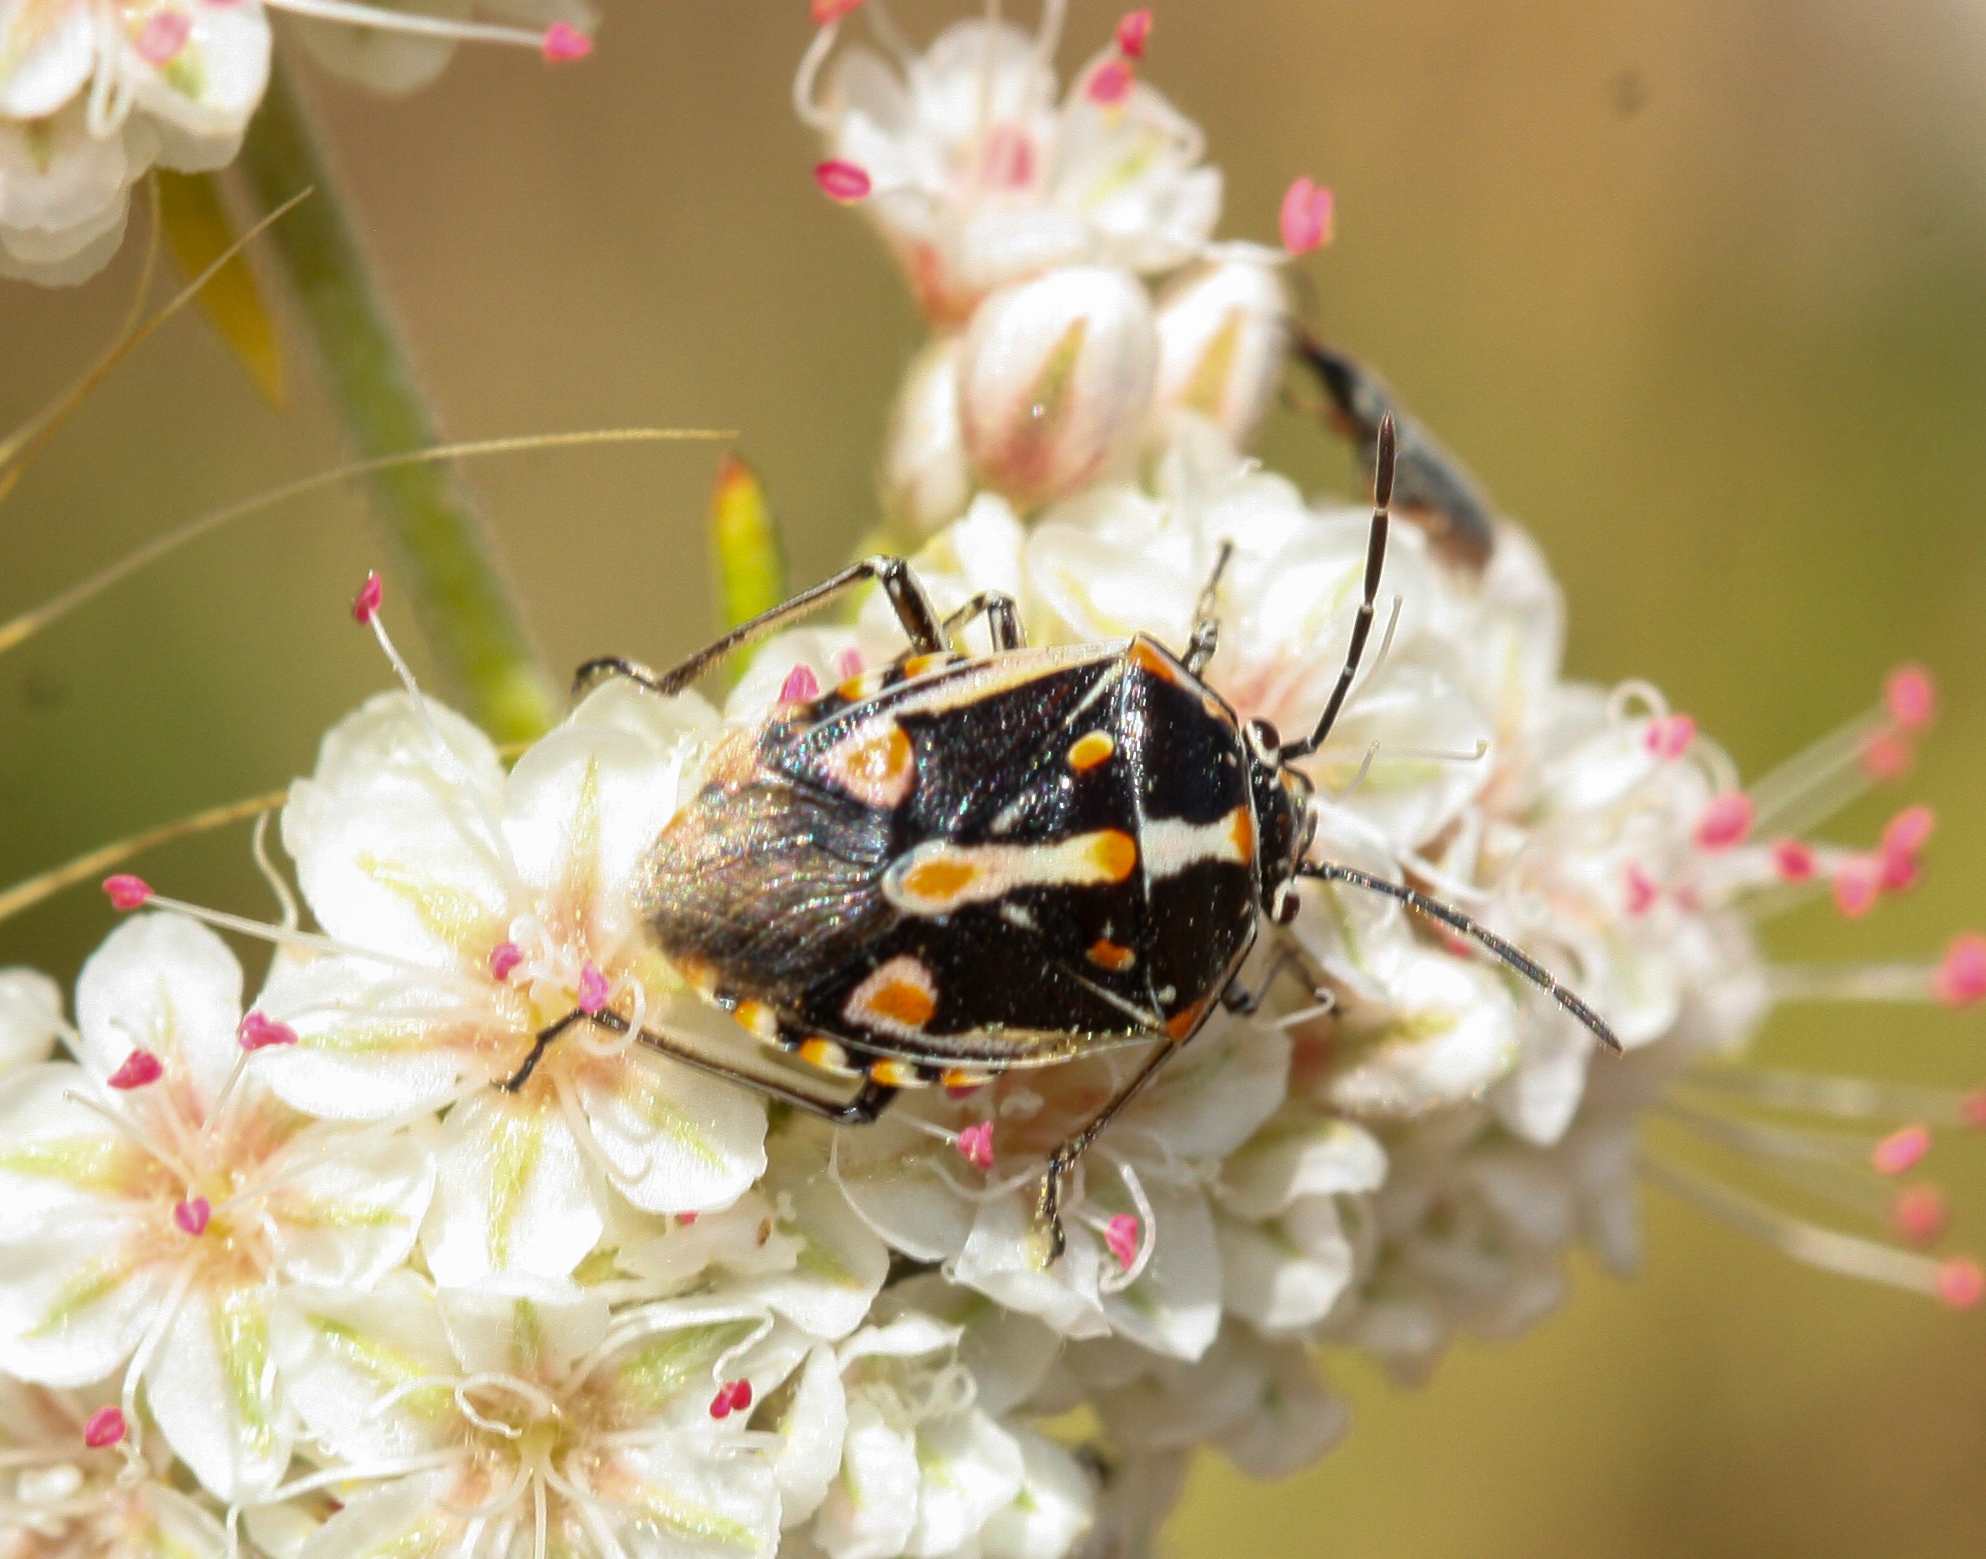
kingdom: Animalia
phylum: Arthropoda
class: Insecta
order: Hemiptera
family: Pentatomidae
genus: Bagrada
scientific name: Bagrada hilaris
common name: Bagrada bug
